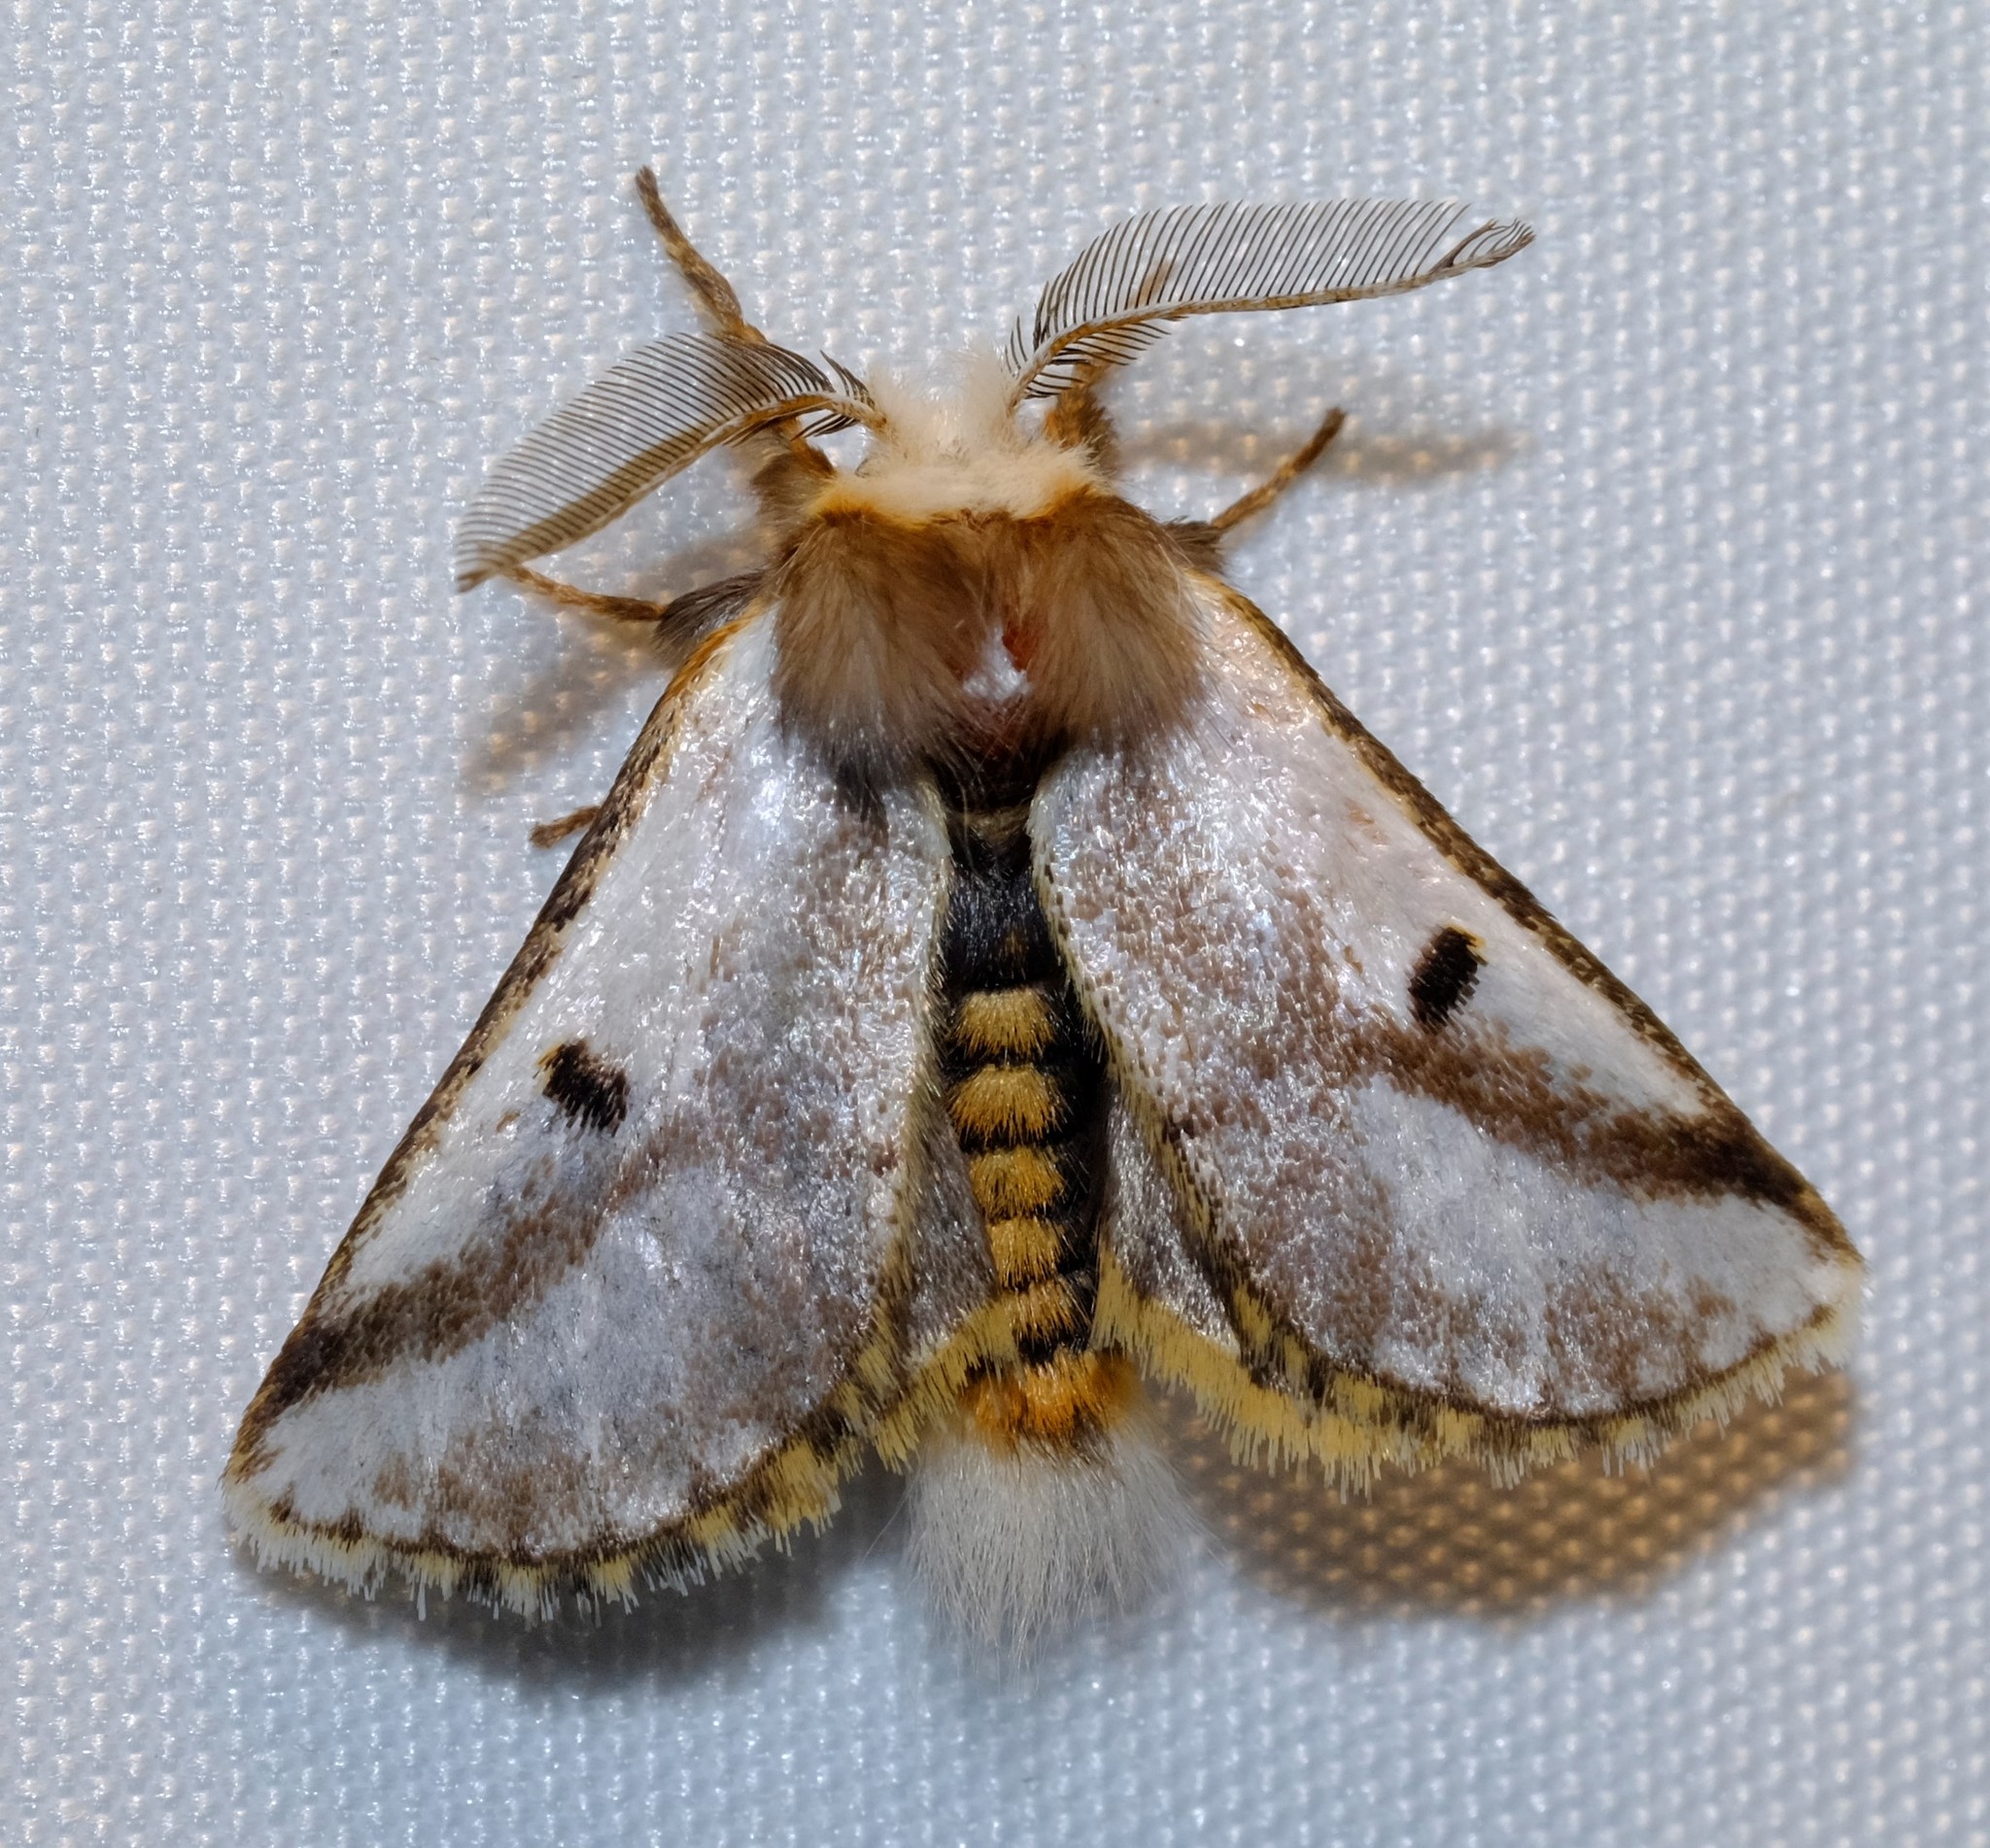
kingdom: Animalia
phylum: Arthropoda
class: Insecta
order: Lepidoptera
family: Notodontidae
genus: Epicoma
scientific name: Epicoma melanospila
